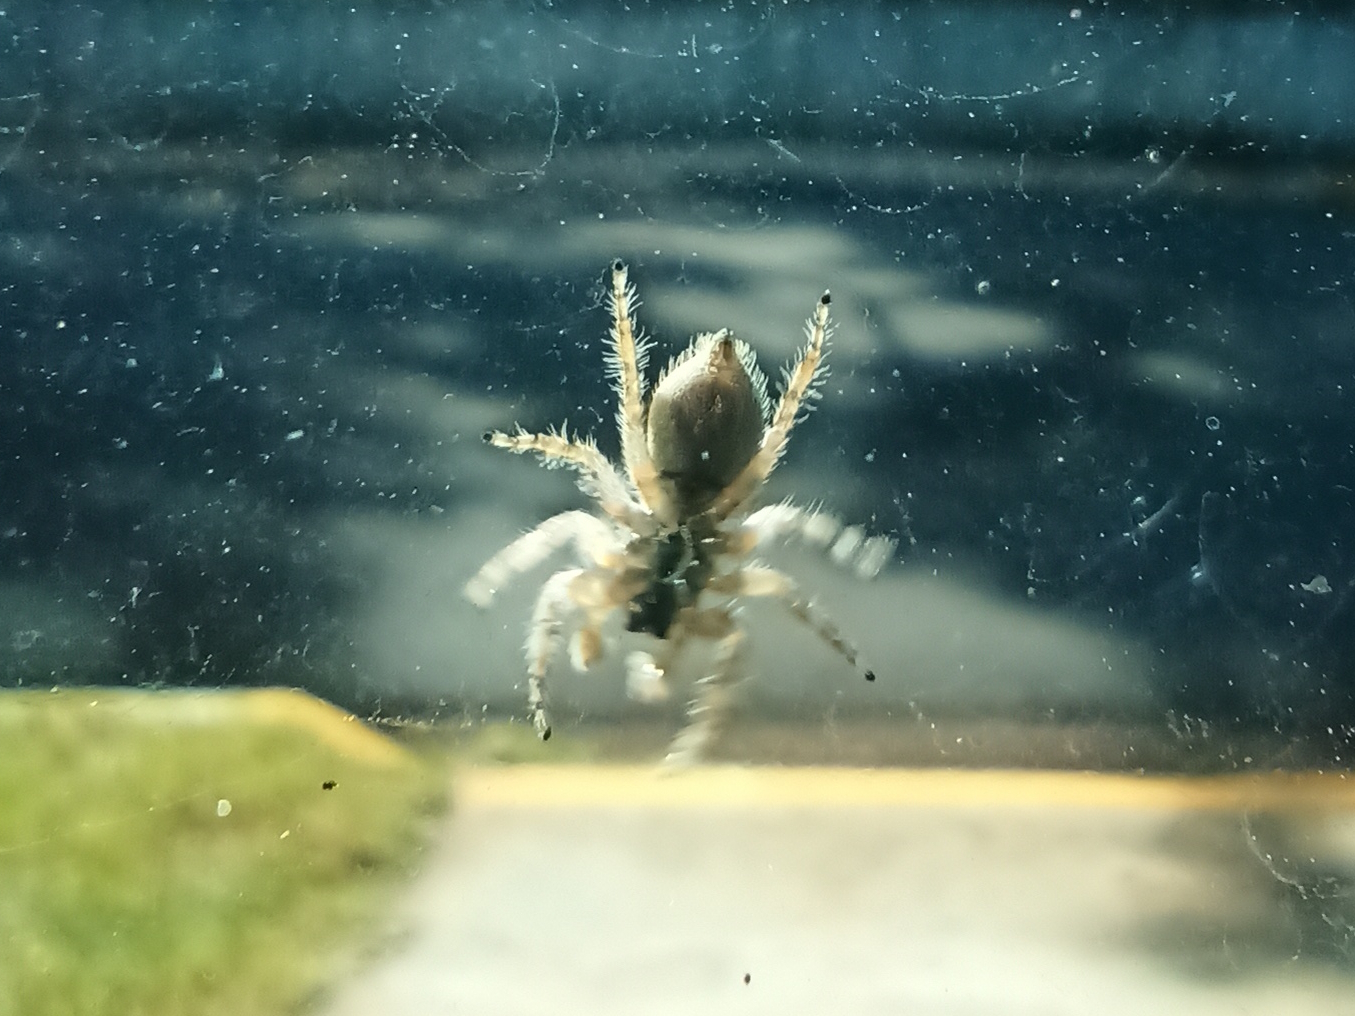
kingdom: Animalia
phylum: Arthropoda
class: Arachnida
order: Araneae
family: Salticidae
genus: Menemerus
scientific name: Menemerus bivittatus
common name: Gray wall jumper
